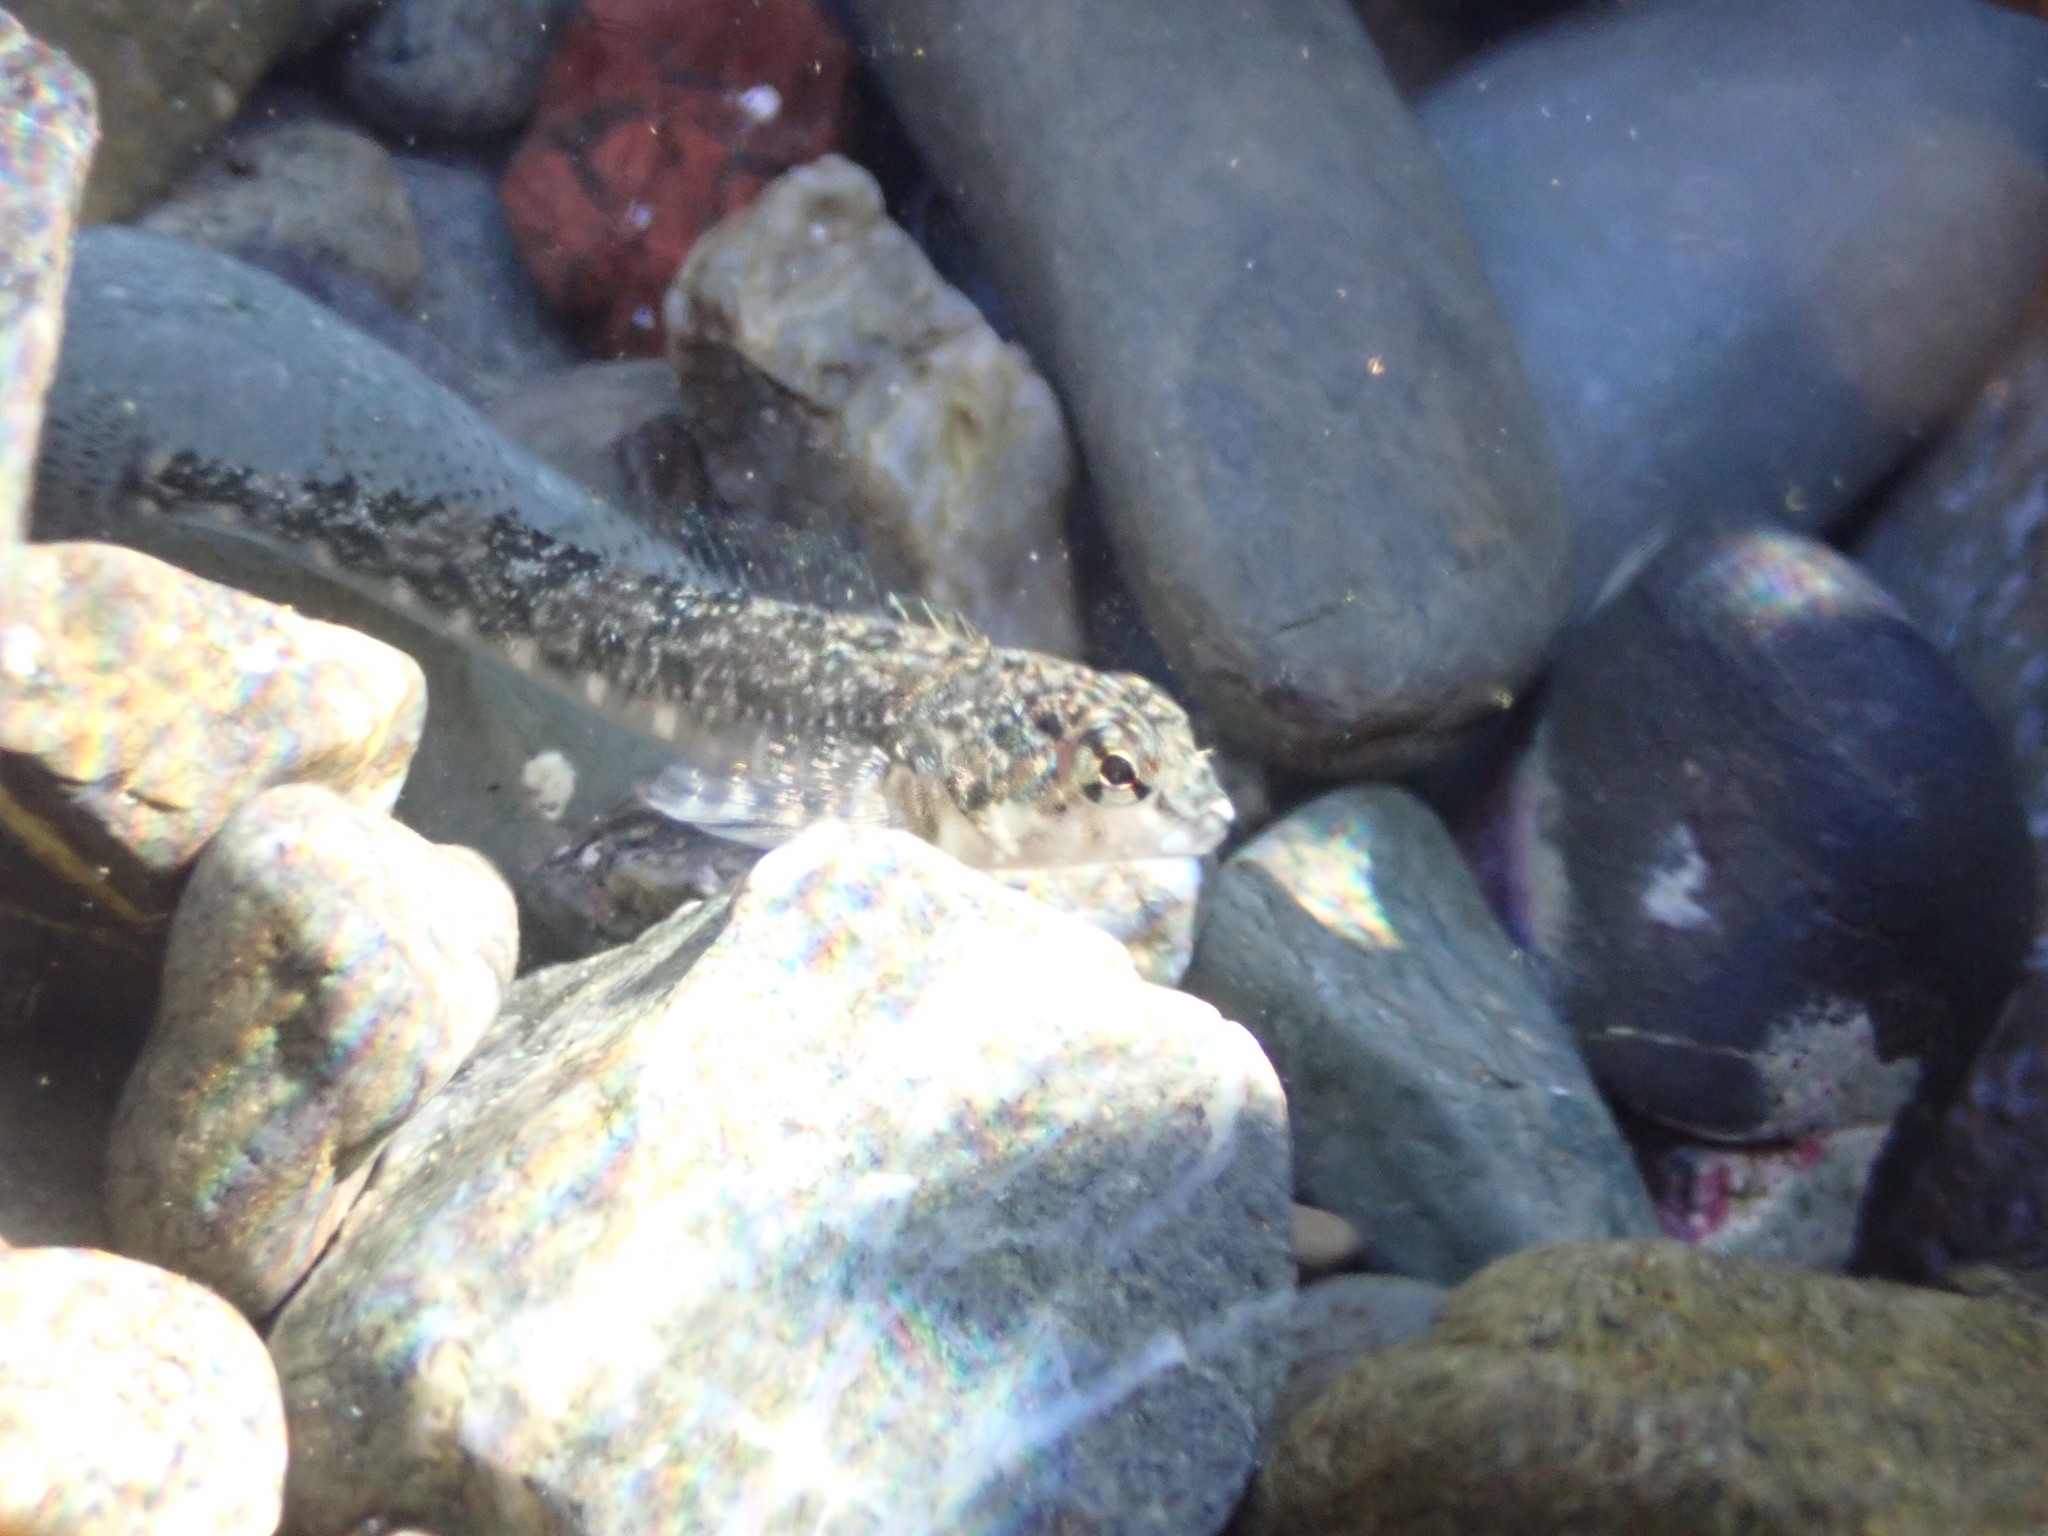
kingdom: Animalia
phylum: Chordata
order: Perciformes
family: Tripterygiidae
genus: Bellapiscis
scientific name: Bellapiscis medius
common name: Twister
